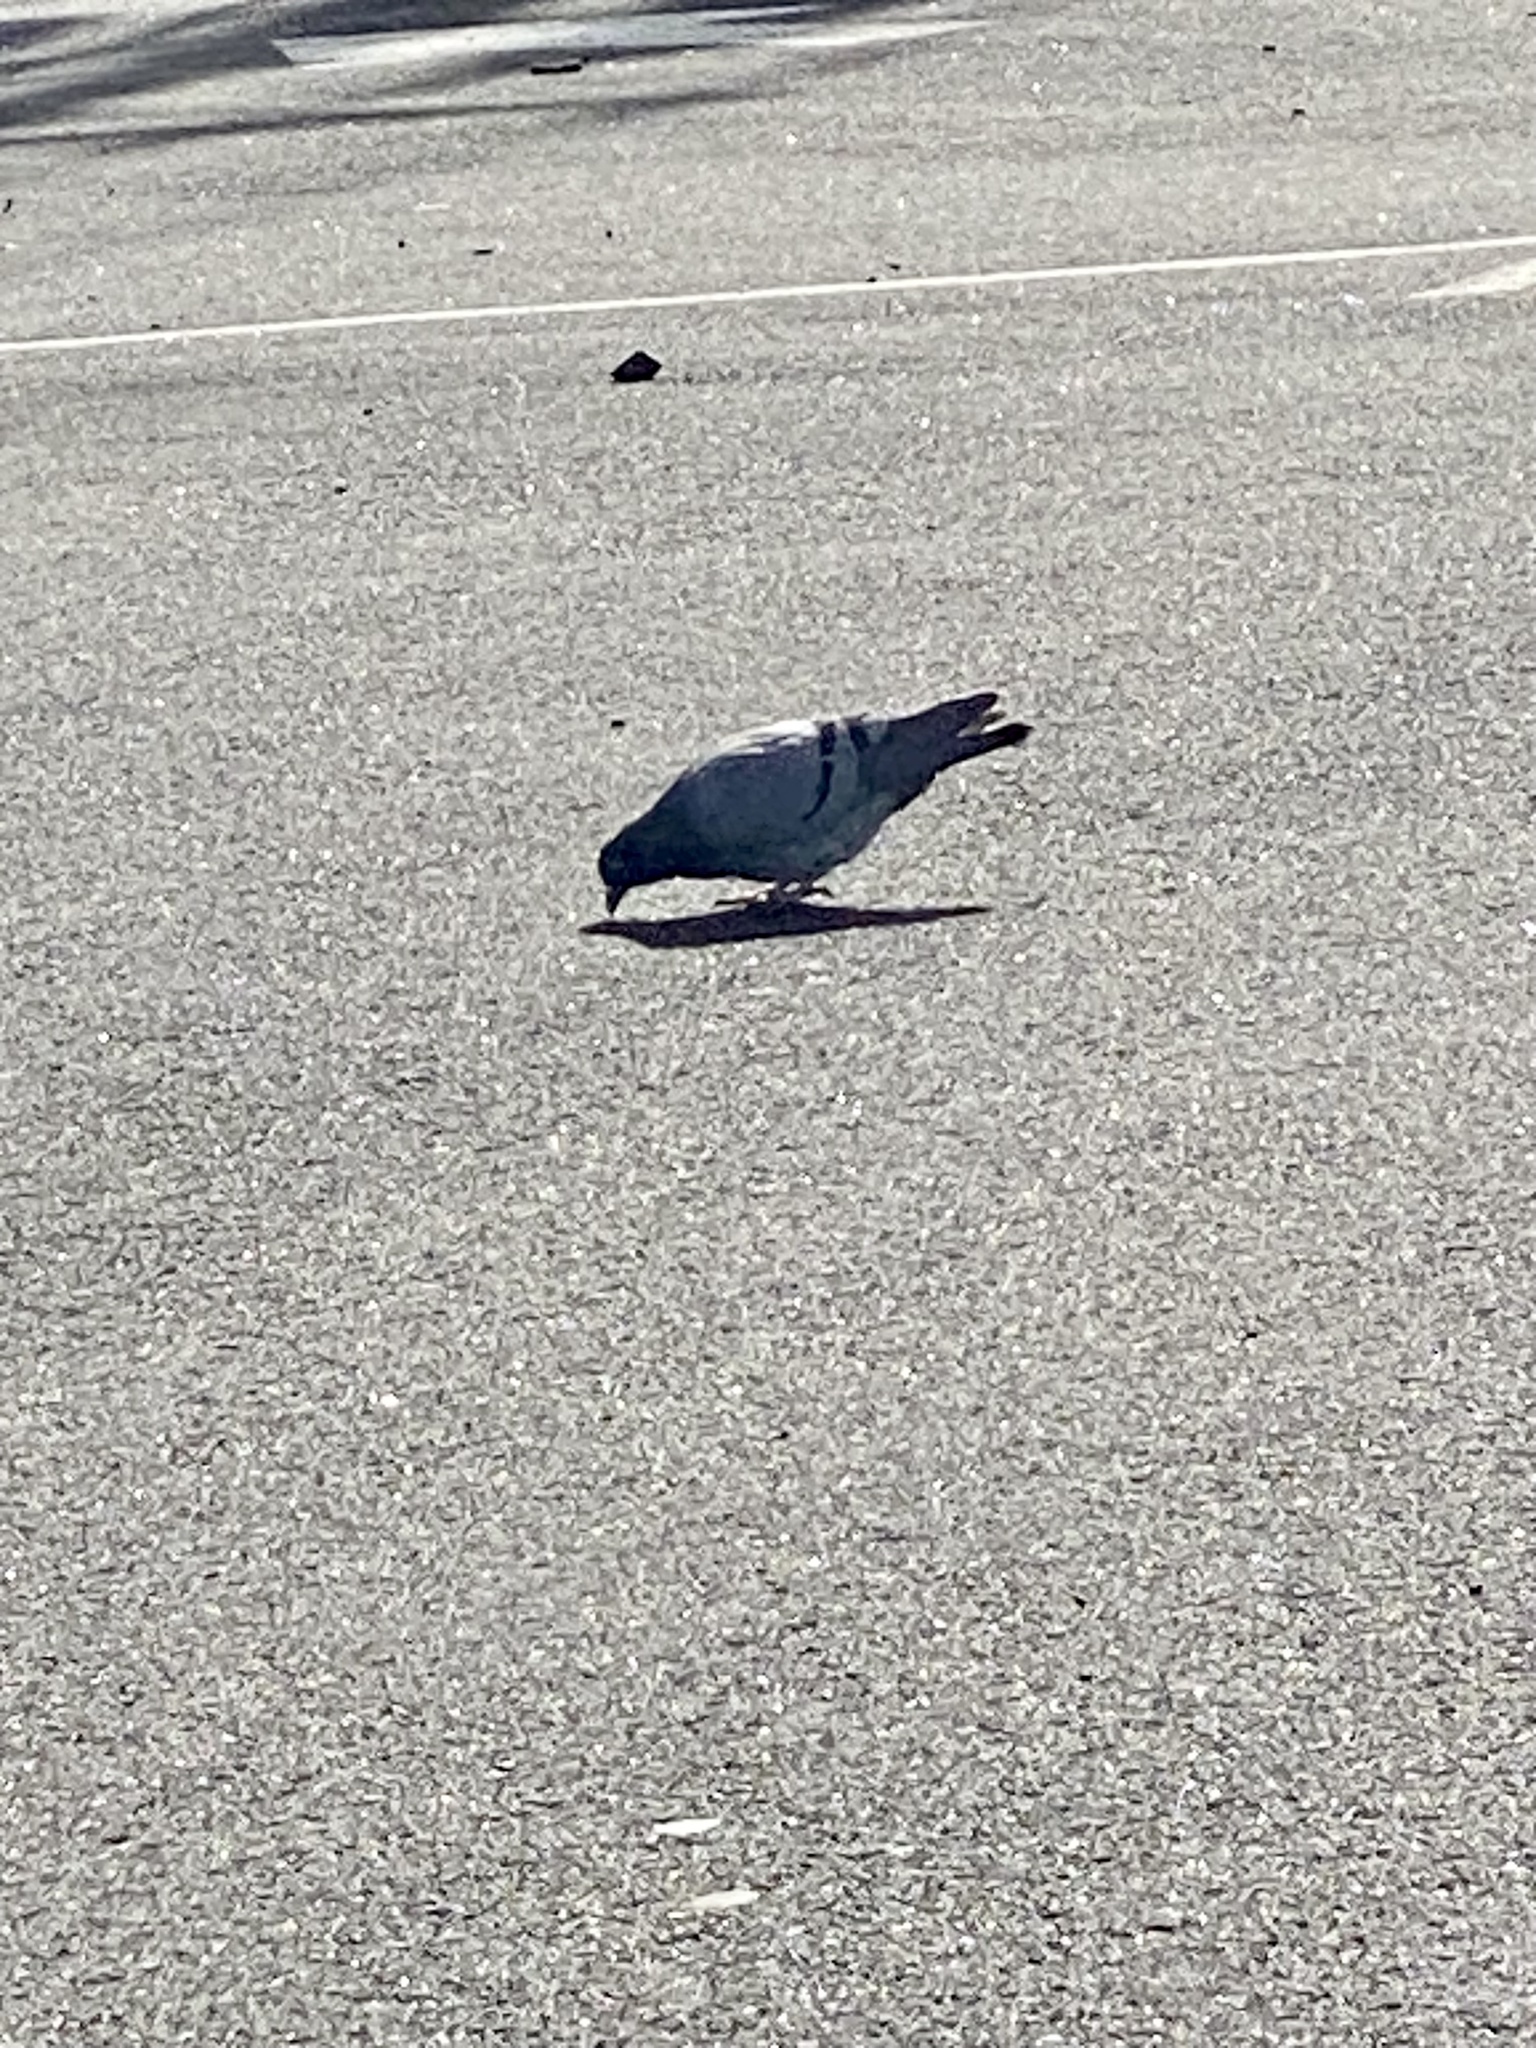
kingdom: Animalia
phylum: Chordata
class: Aves
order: Columbiformes
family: Columbidae
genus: Columba
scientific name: Columba livia
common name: Rock pigeon
